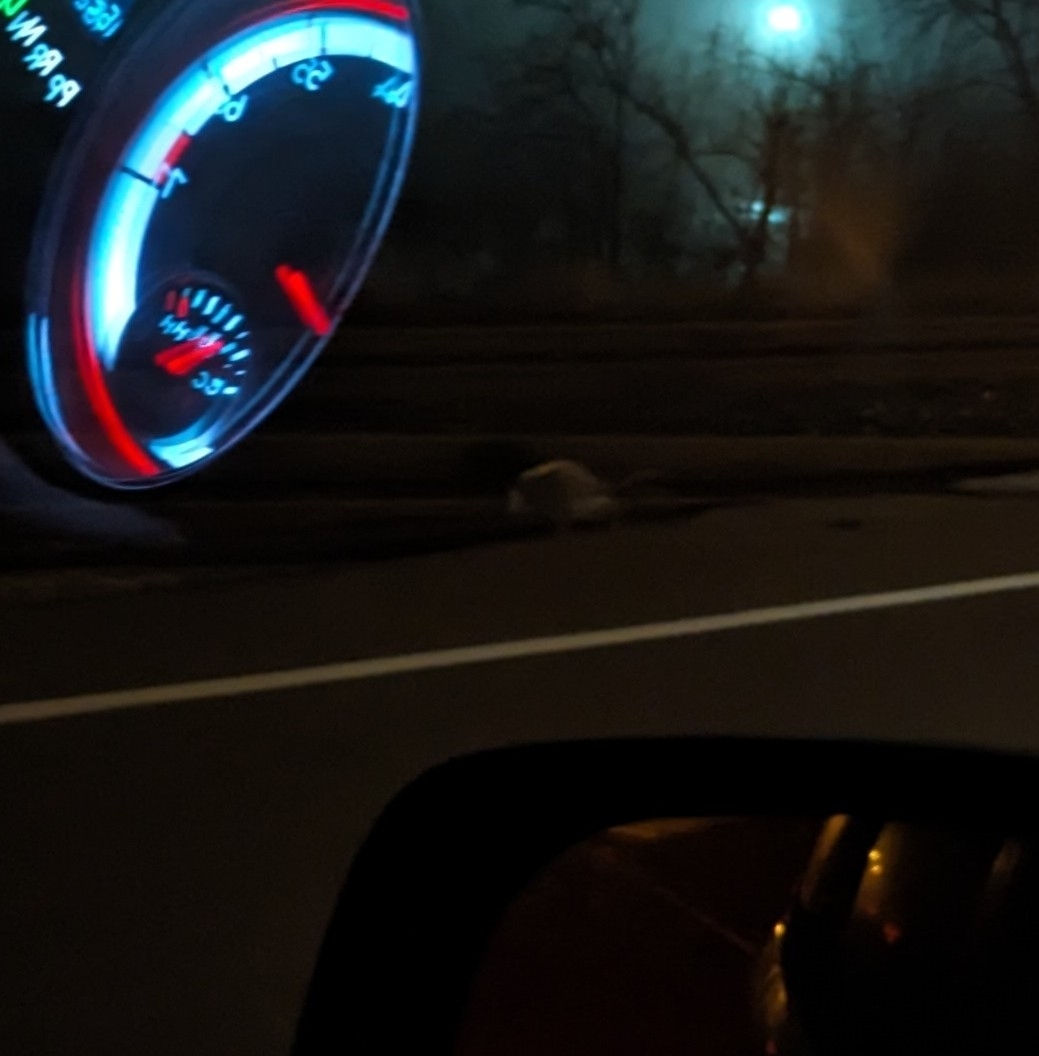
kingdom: Animalia
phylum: Chordata
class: Mammalia
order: Didelphimorphia
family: Didelphidae
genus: Didelphis
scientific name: Didelphis virginiana
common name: Virginia opossum
